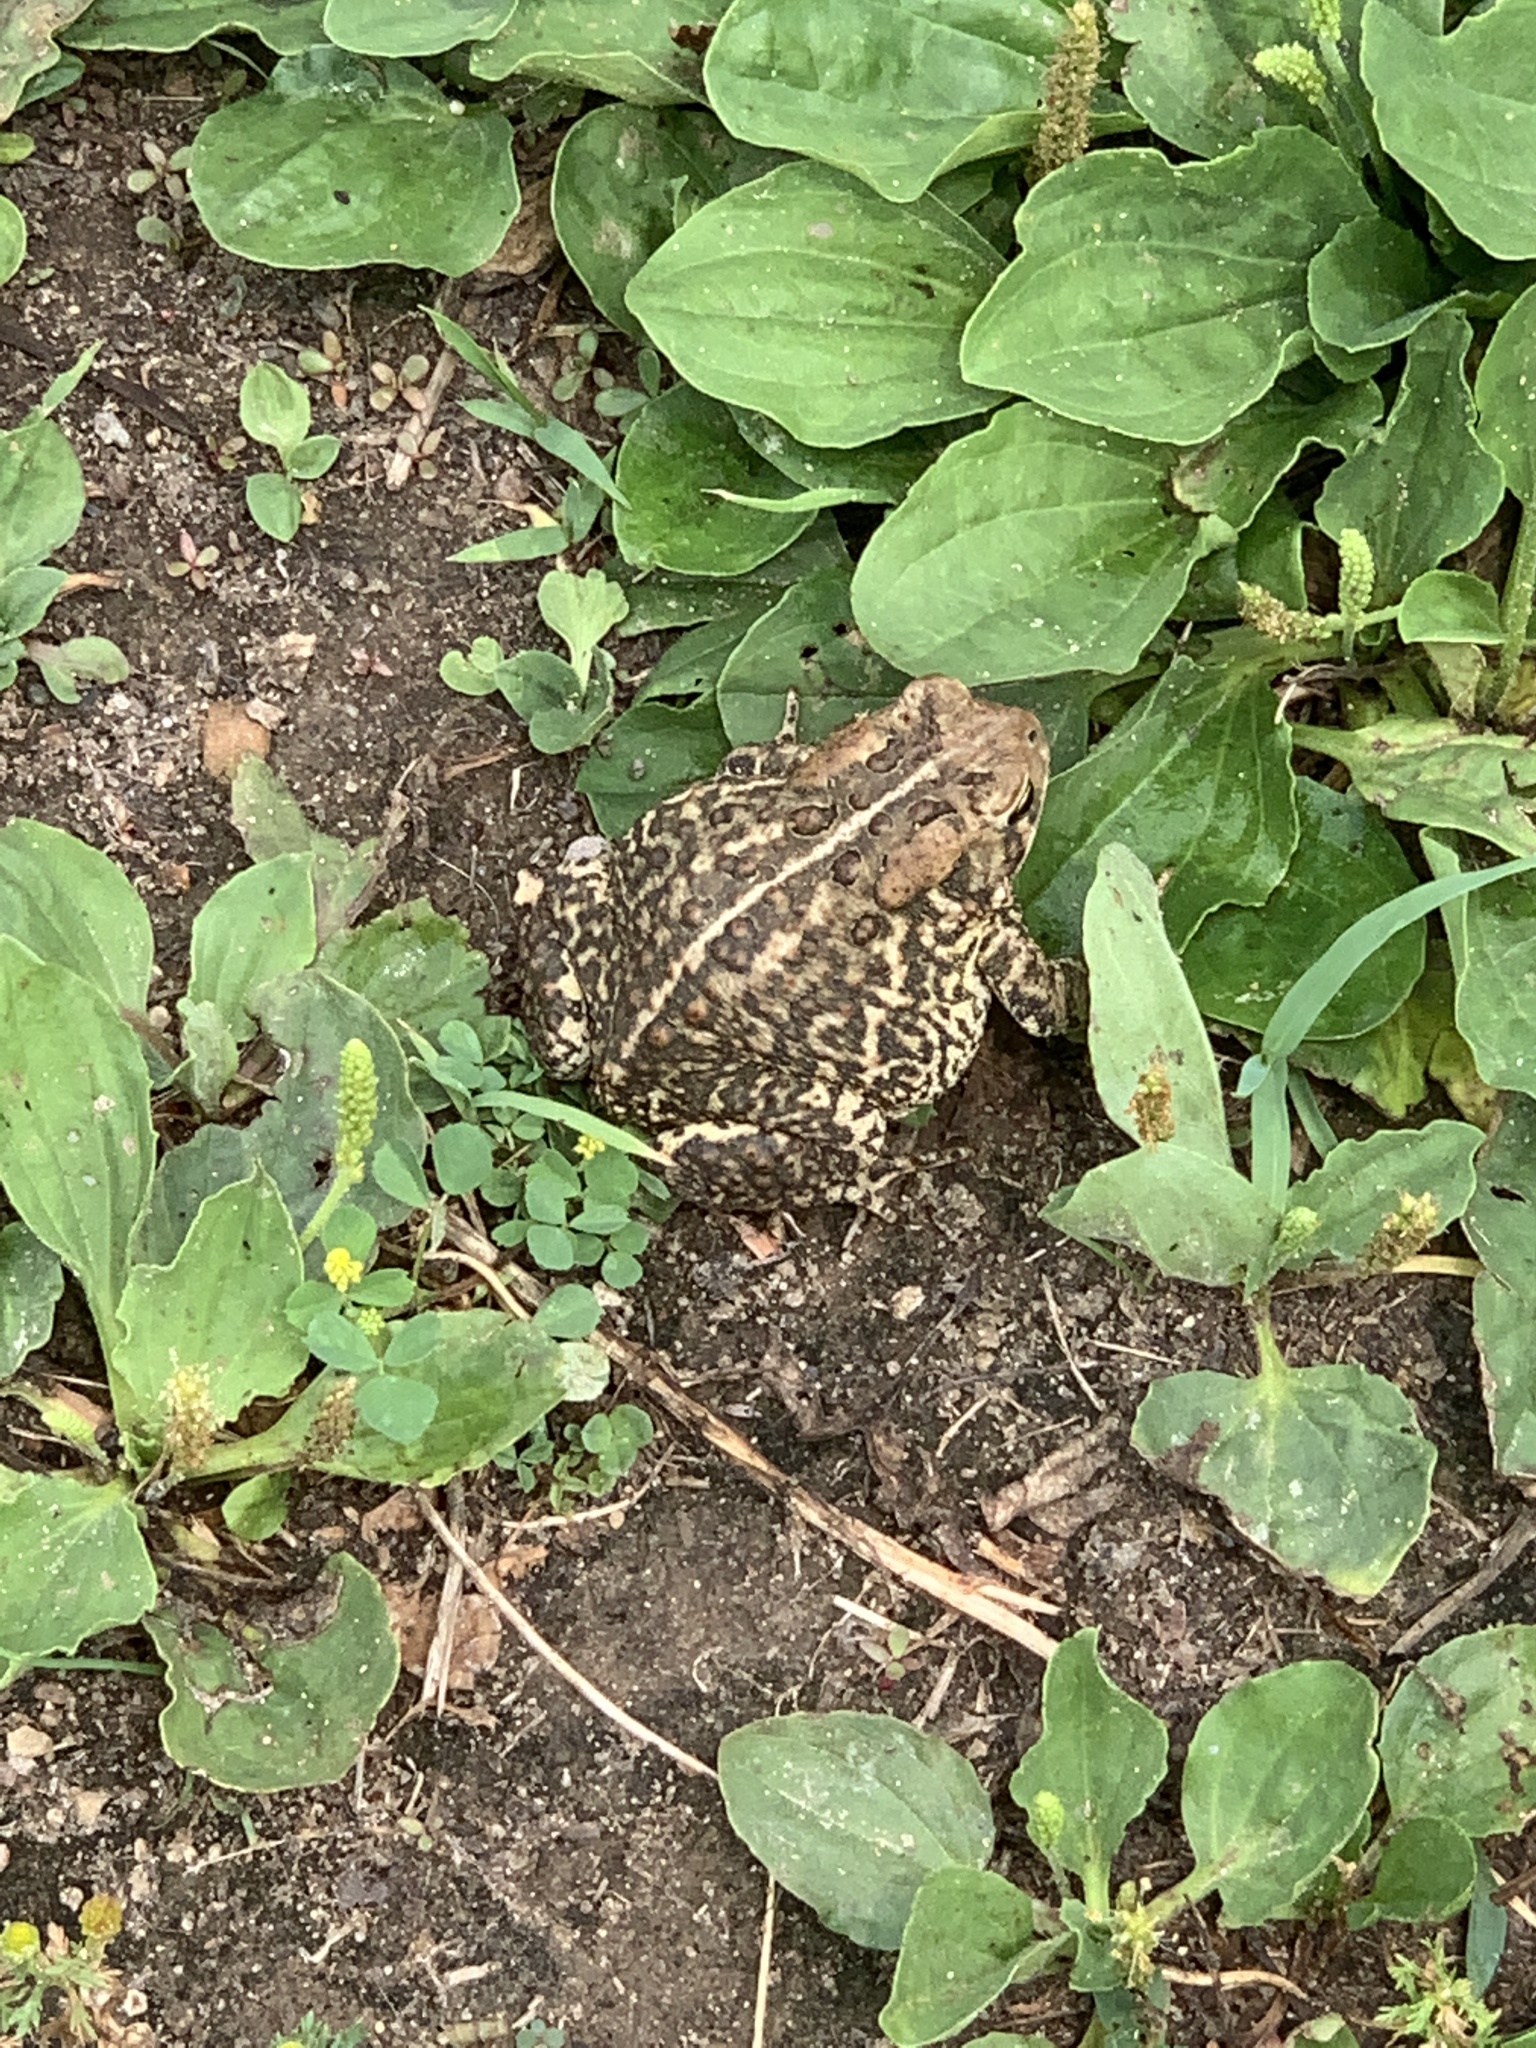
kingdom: Animalia
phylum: Chordata
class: Amphibia
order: Anura
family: Bufonidae
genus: Anaxyrus
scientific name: Anaxyrus americanus
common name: American toad
